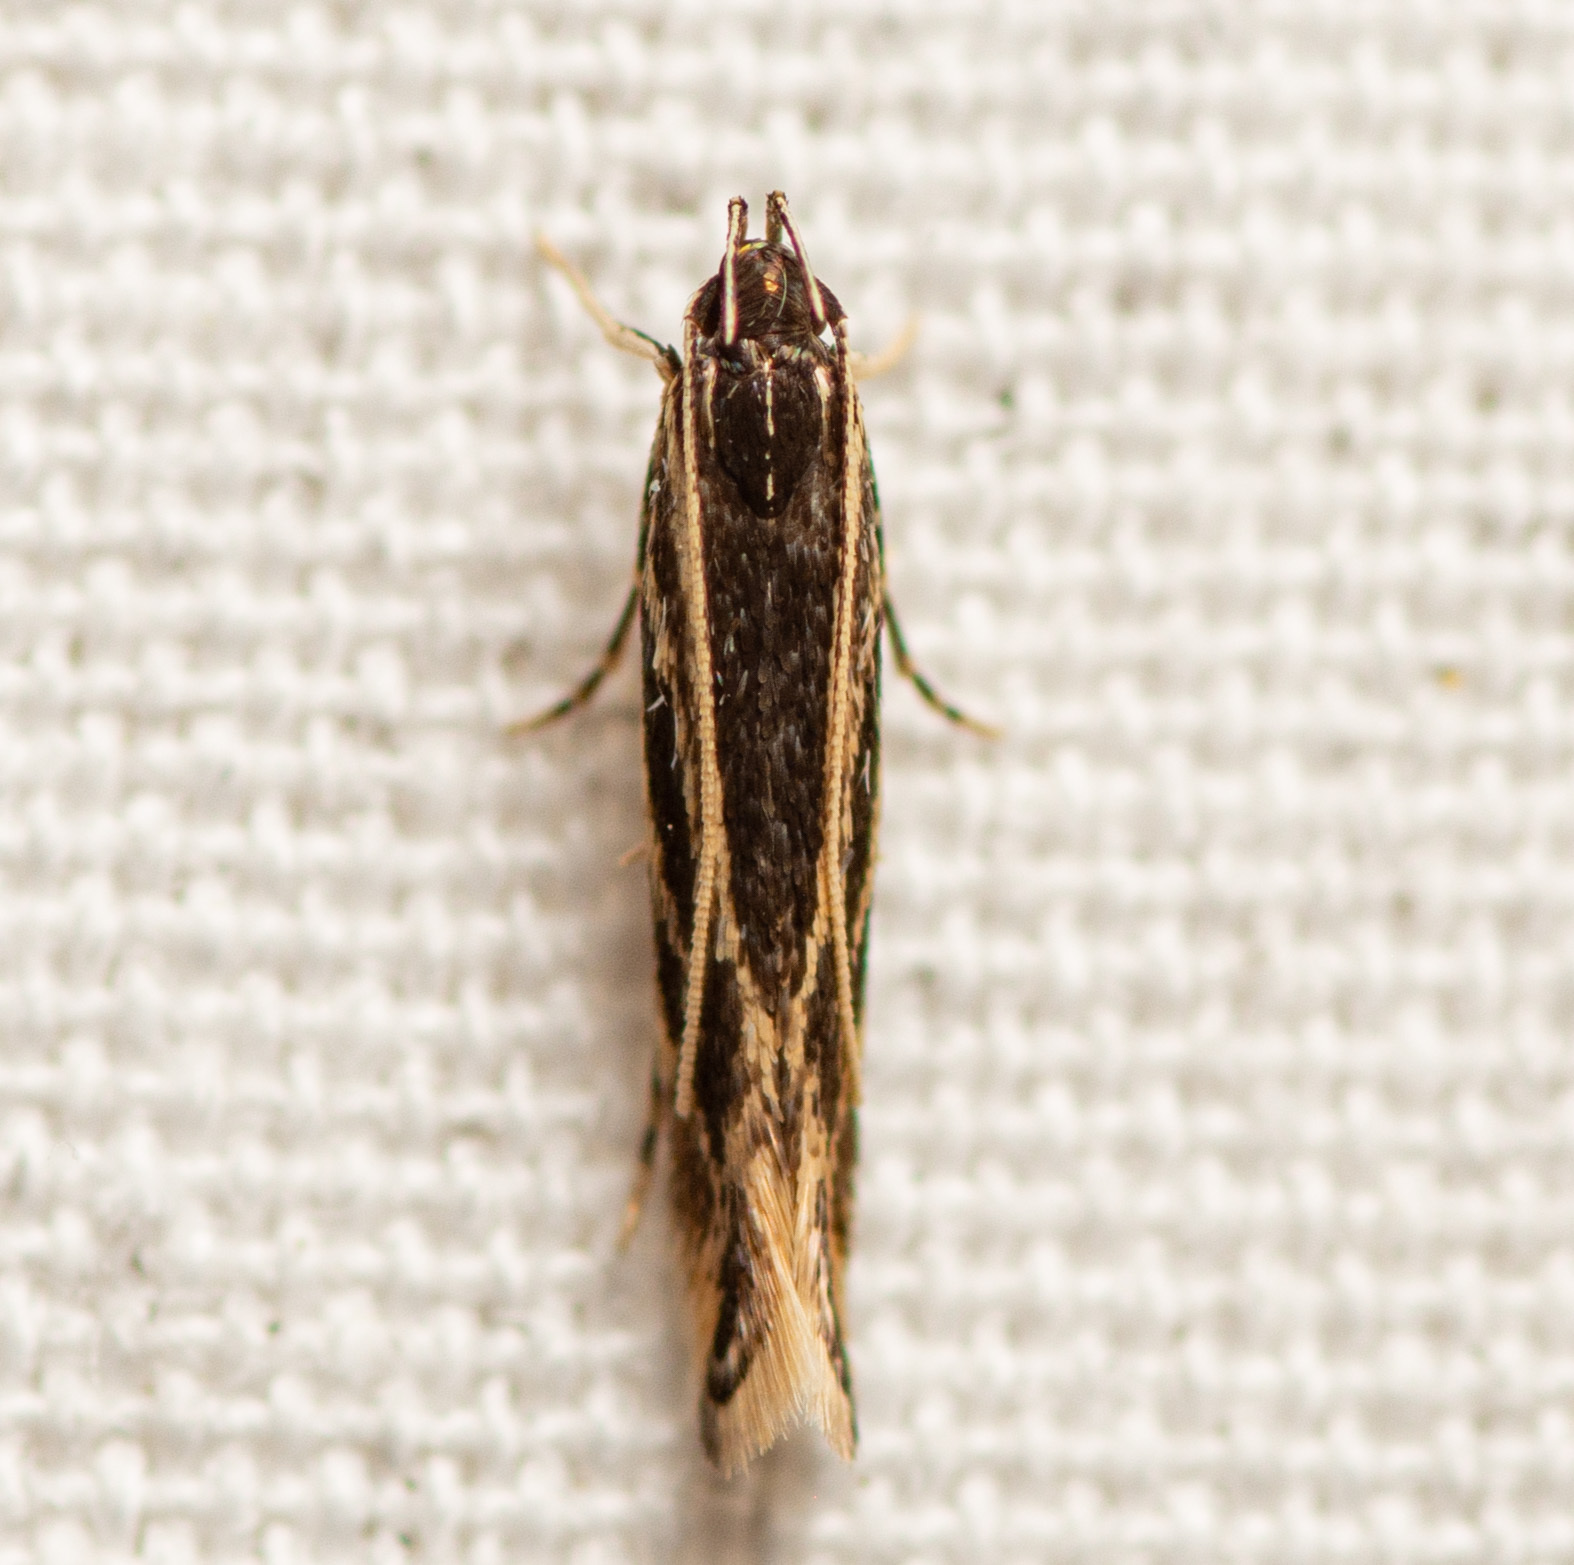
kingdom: Animalia
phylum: Arthropoda
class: Insecta
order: Lepidoptera
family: Cosmopterigidae
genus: Eralea
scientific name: Eralea albalineella
